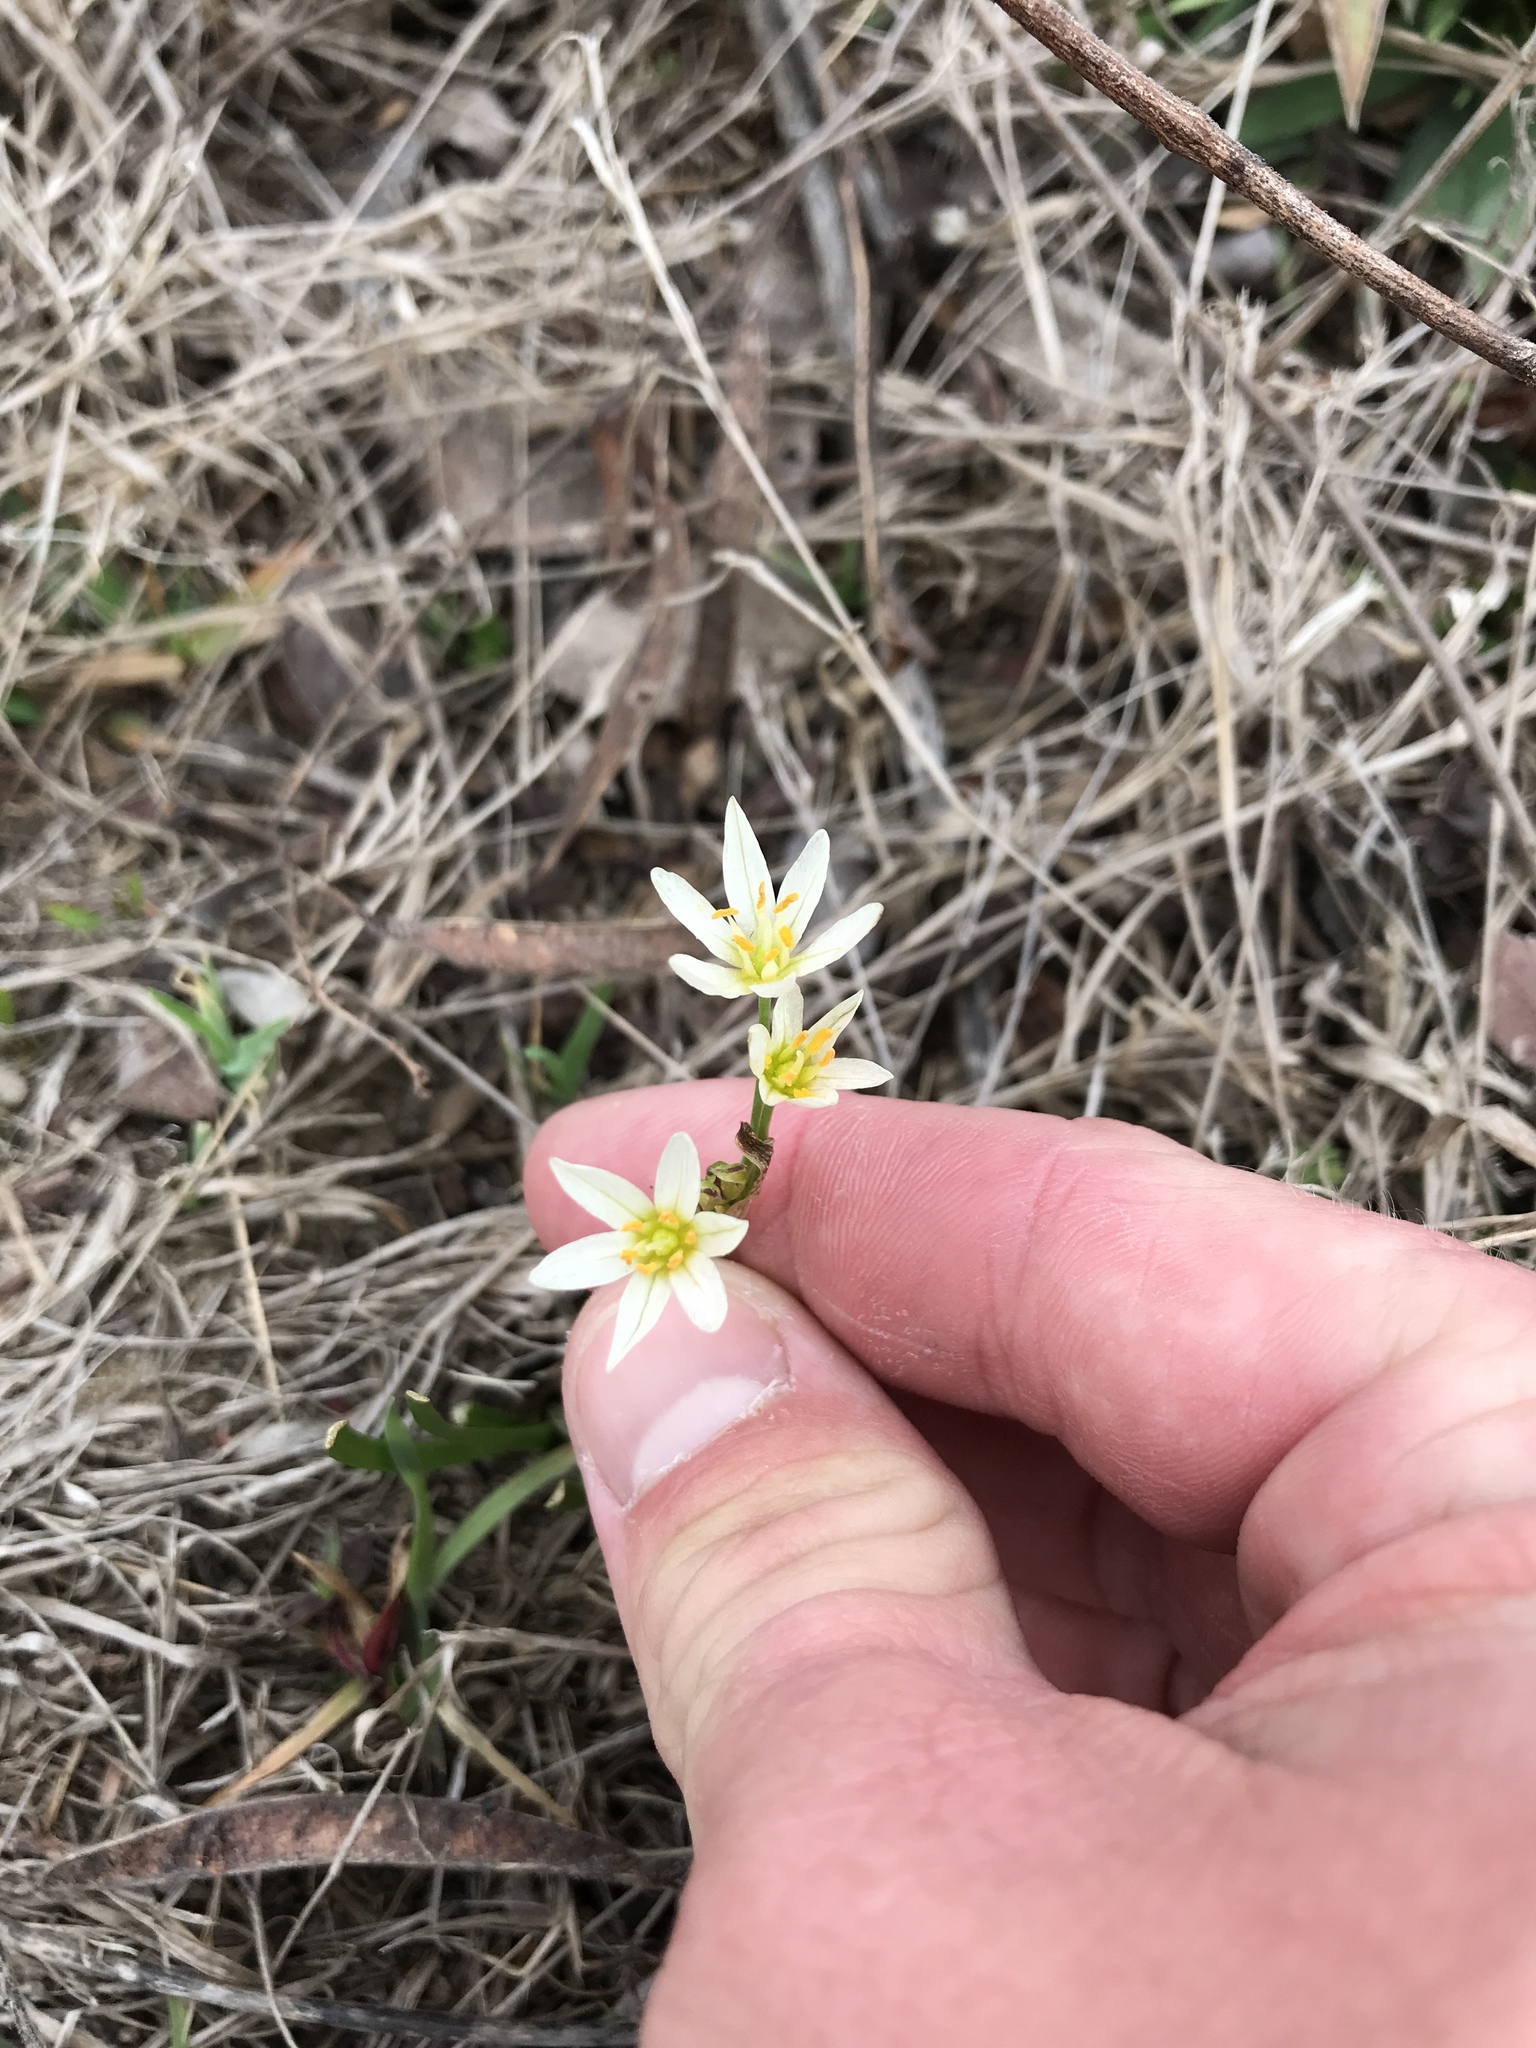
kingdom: Plantae
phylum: Tracheophyta
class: Liliopsida
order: Asparagales
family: Amaryllidaceae
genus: Nothoscordum
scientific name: Nothoscordum bivalve
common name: Crow-poison
